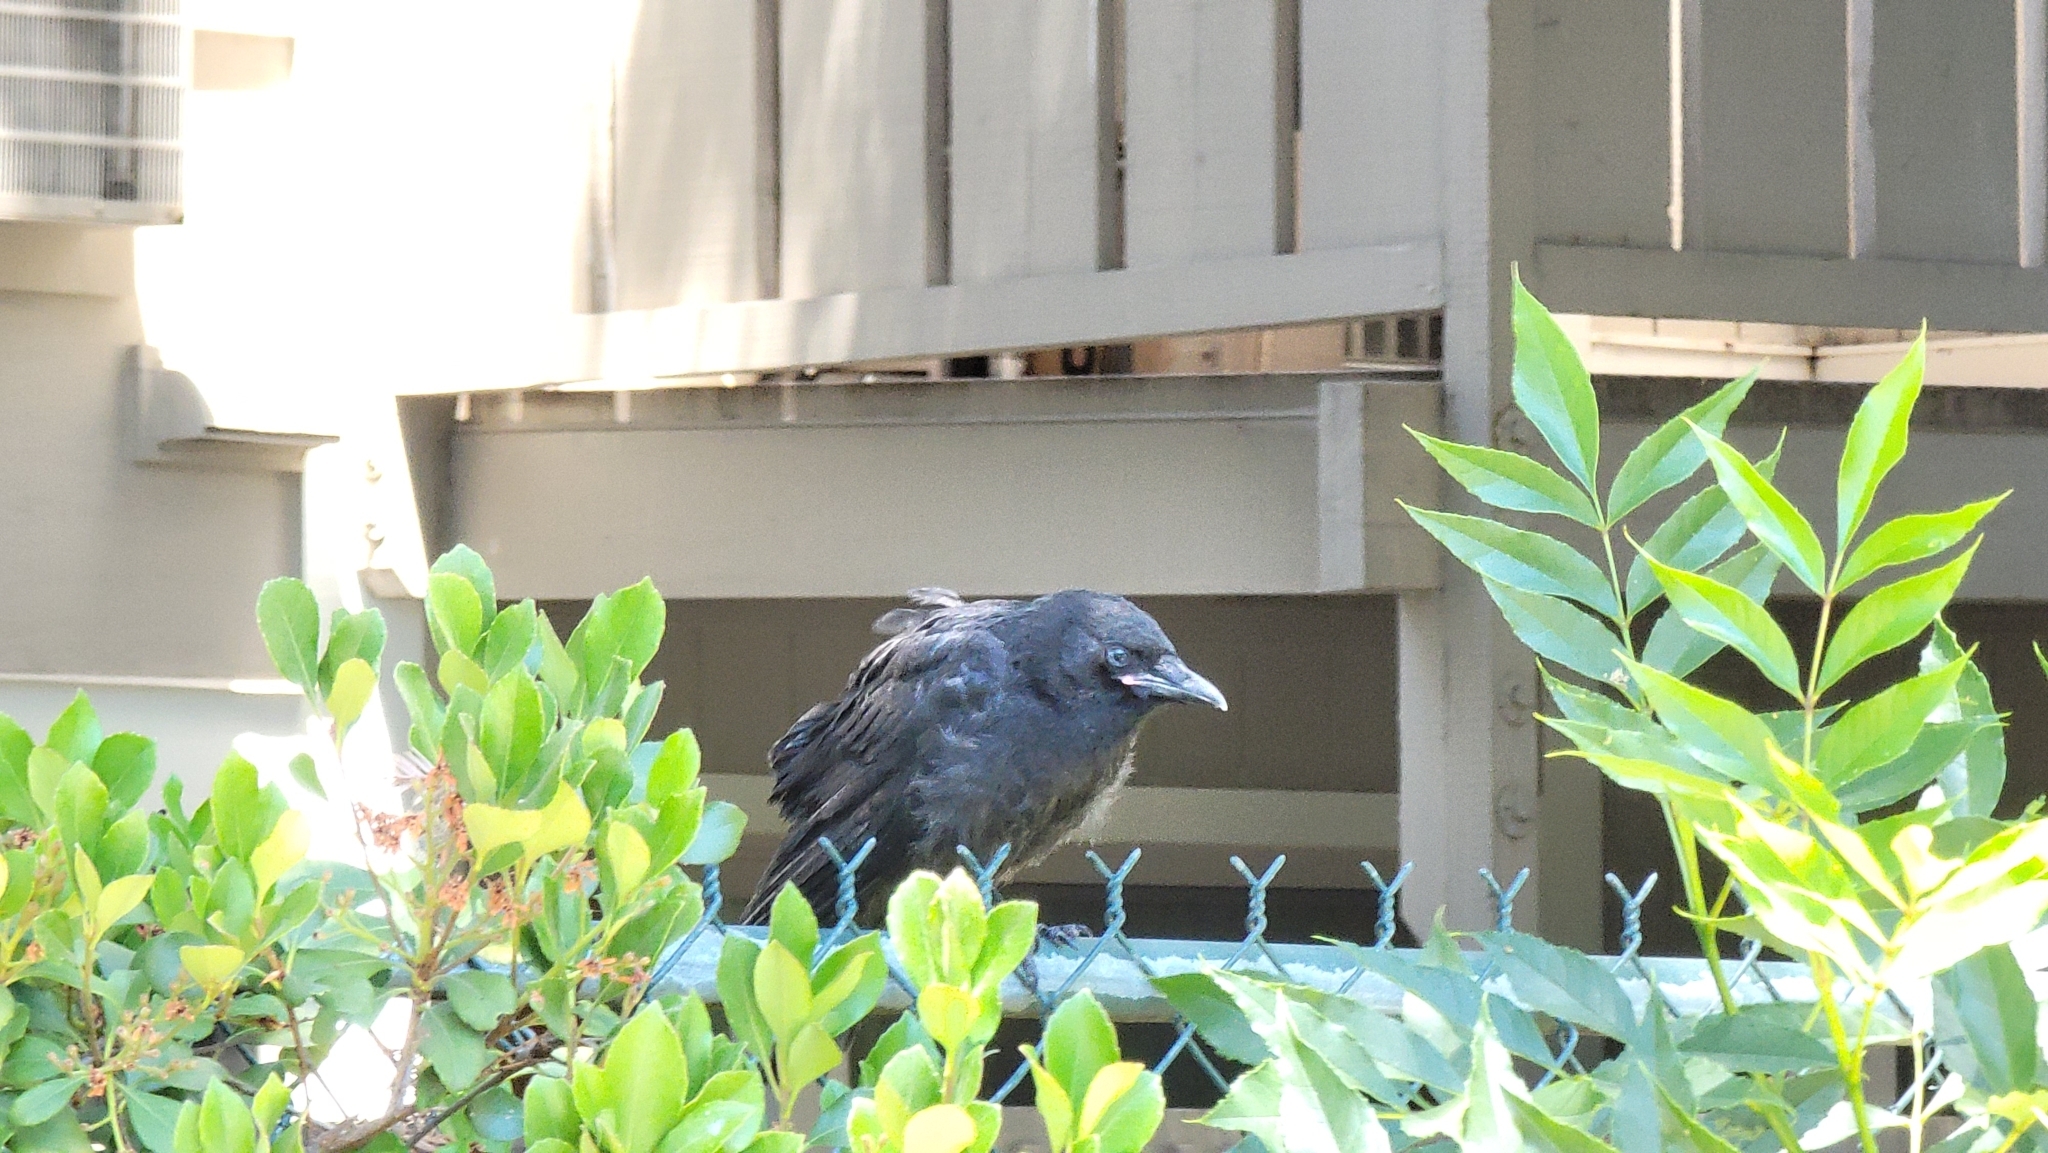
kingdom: Animalia
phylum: Chordata
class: Aves
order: Passeriformes
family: Corvidae
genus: Corvus
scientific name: Corvus brachyrhynchos
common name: American crow
